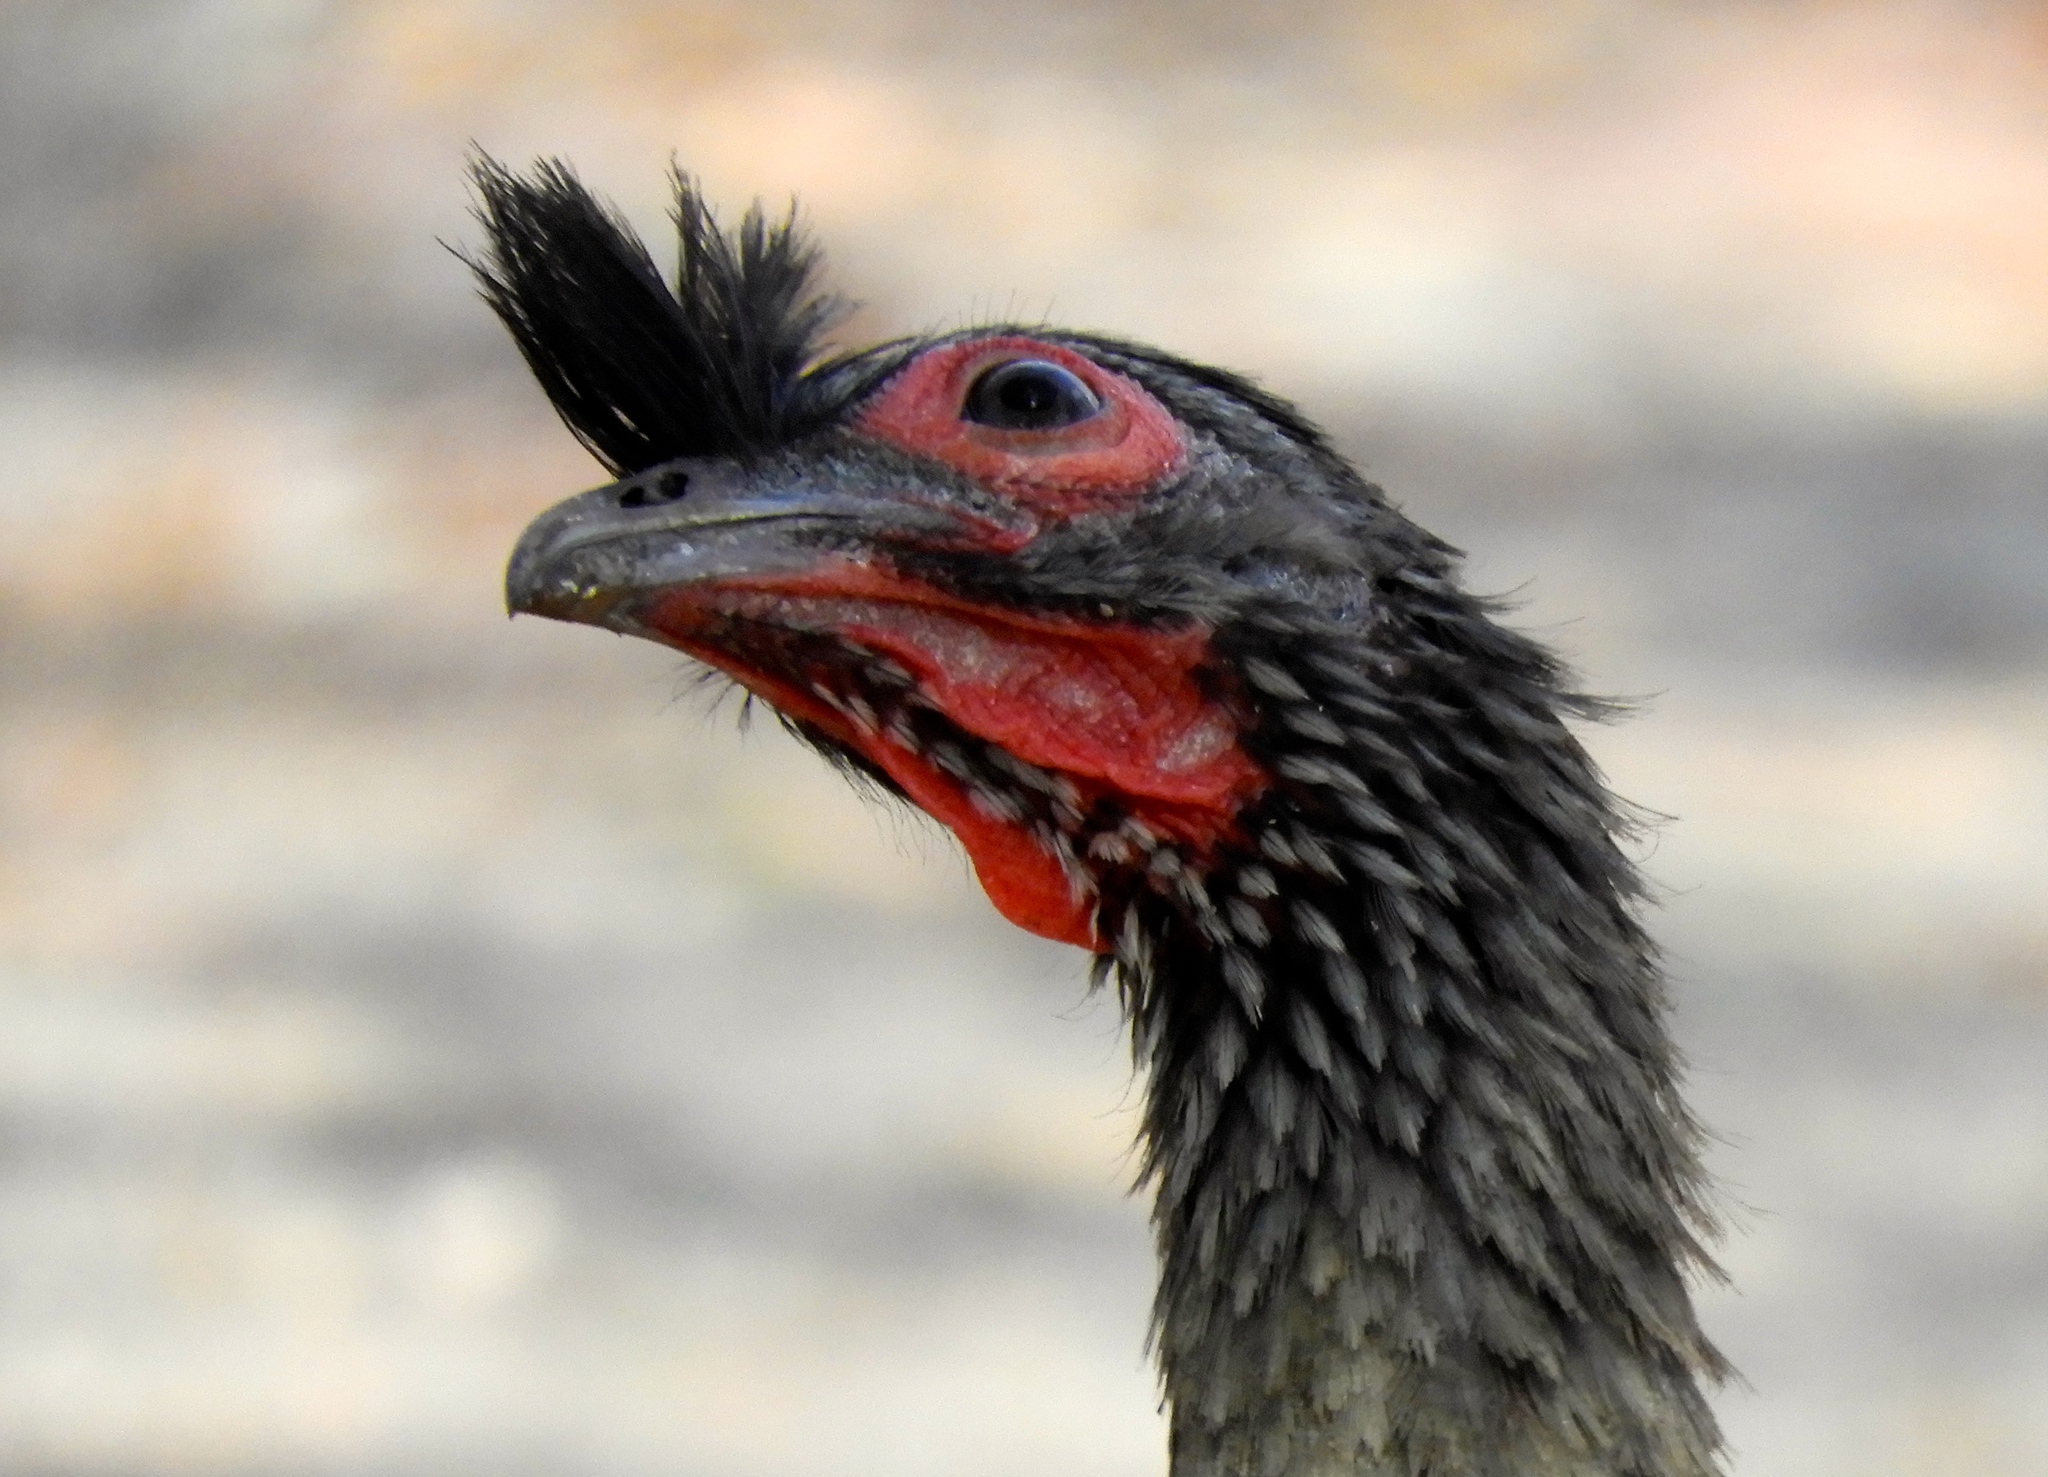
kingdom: Animalia
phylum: Chordata
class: Aves
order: Galliformes
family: Cracidae
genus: Ortalis
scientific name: Ortalis wagleri
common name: Rufous-bellied chachalaca
